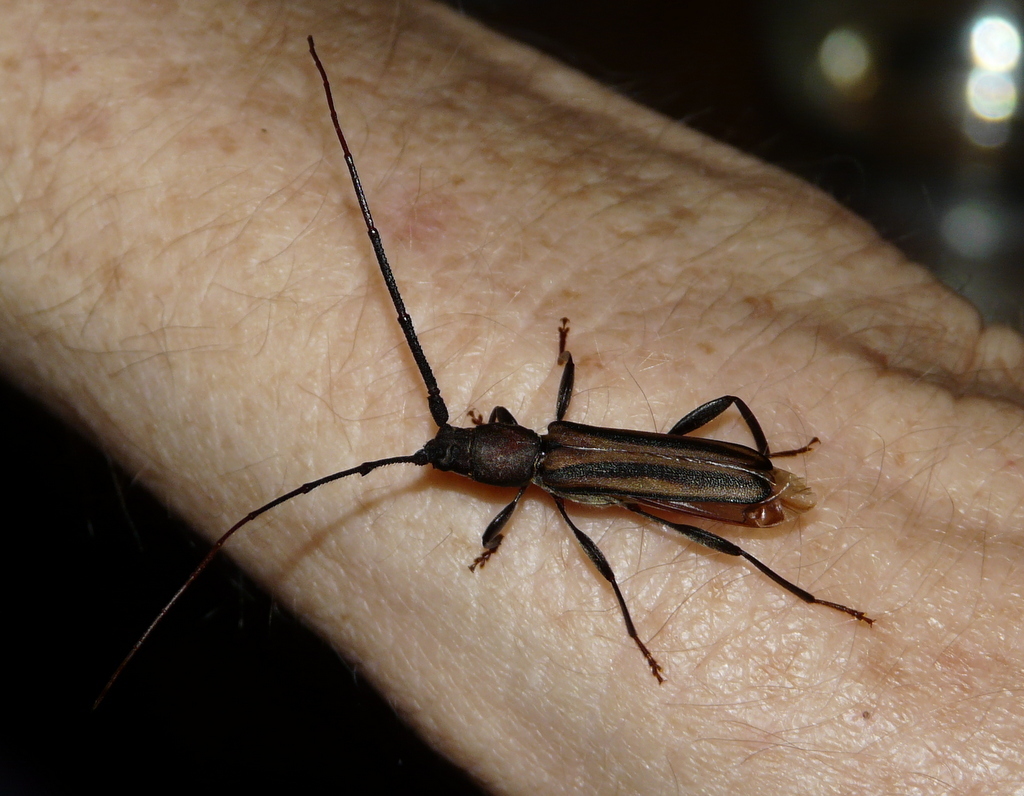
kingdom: Animalia
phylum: Arthropoda
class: Insecta
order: Coleoptera
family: Cerambycidae
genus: Xystrocera
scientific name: Xystrocera dispar
